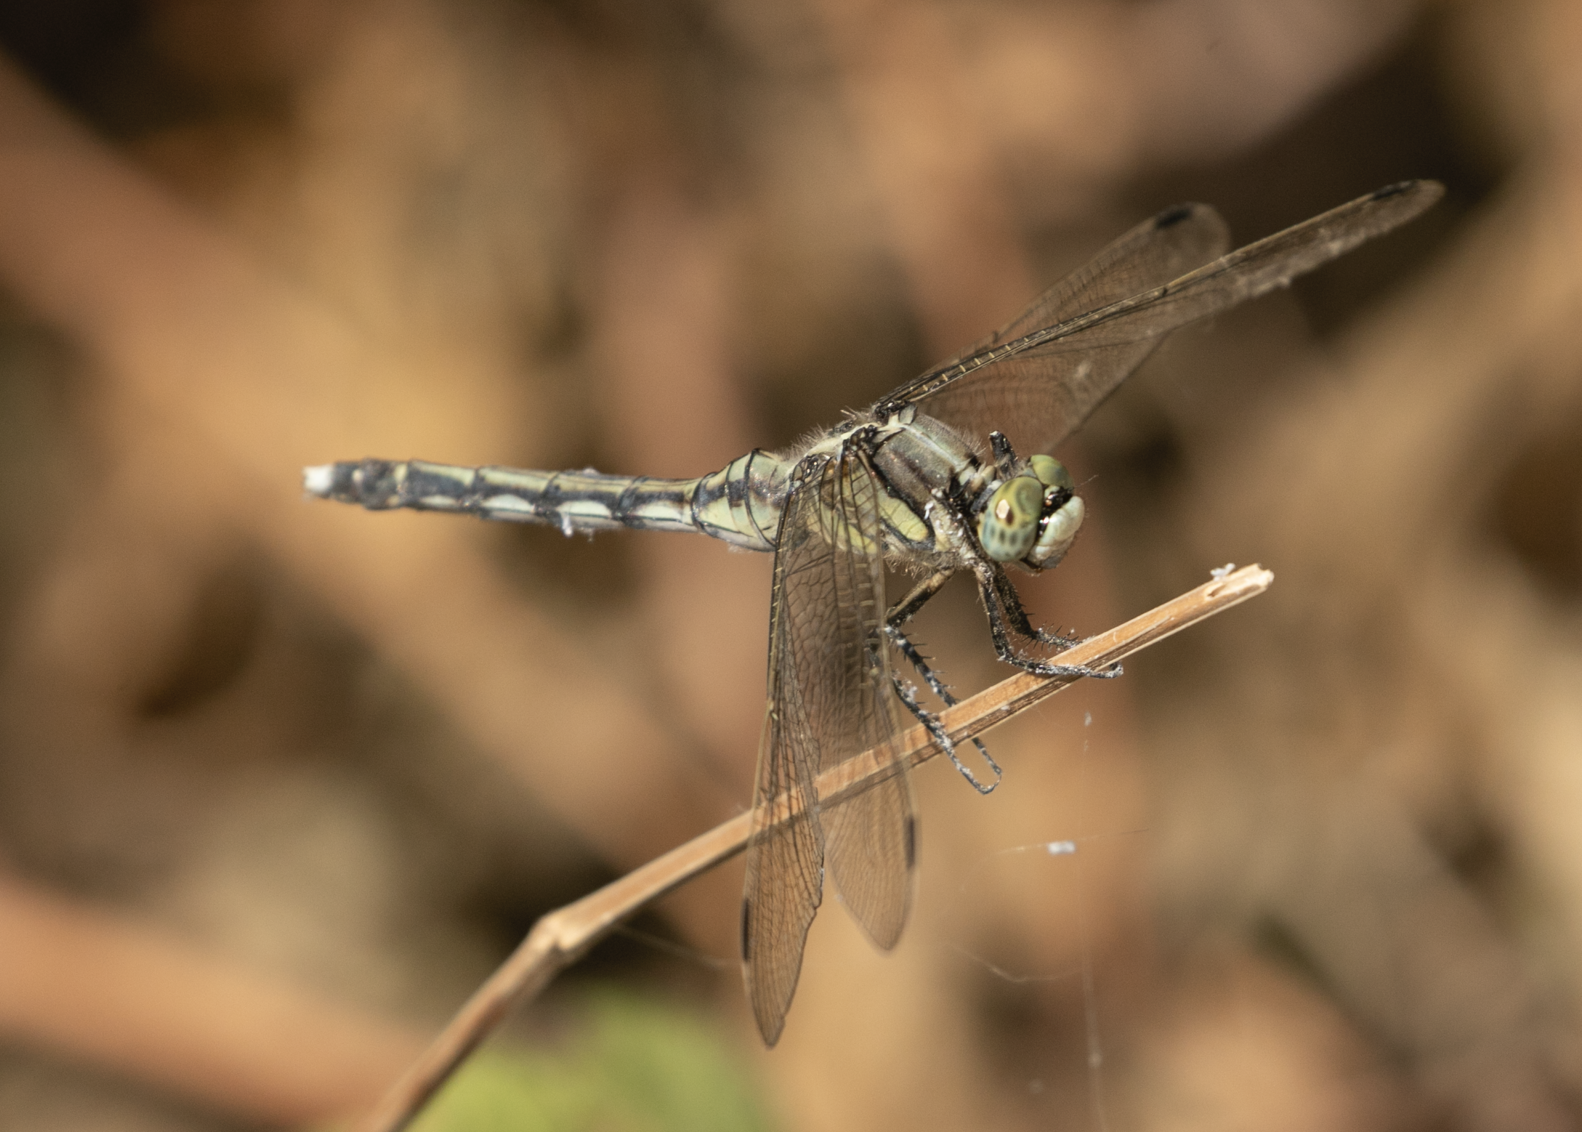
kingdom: Animalia
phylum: Arthropoda
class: Insecta
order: Odonata
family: Libellulidae
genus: Orthetrum
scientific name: Orthetrum albistylum
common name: White-tailed skimmer
